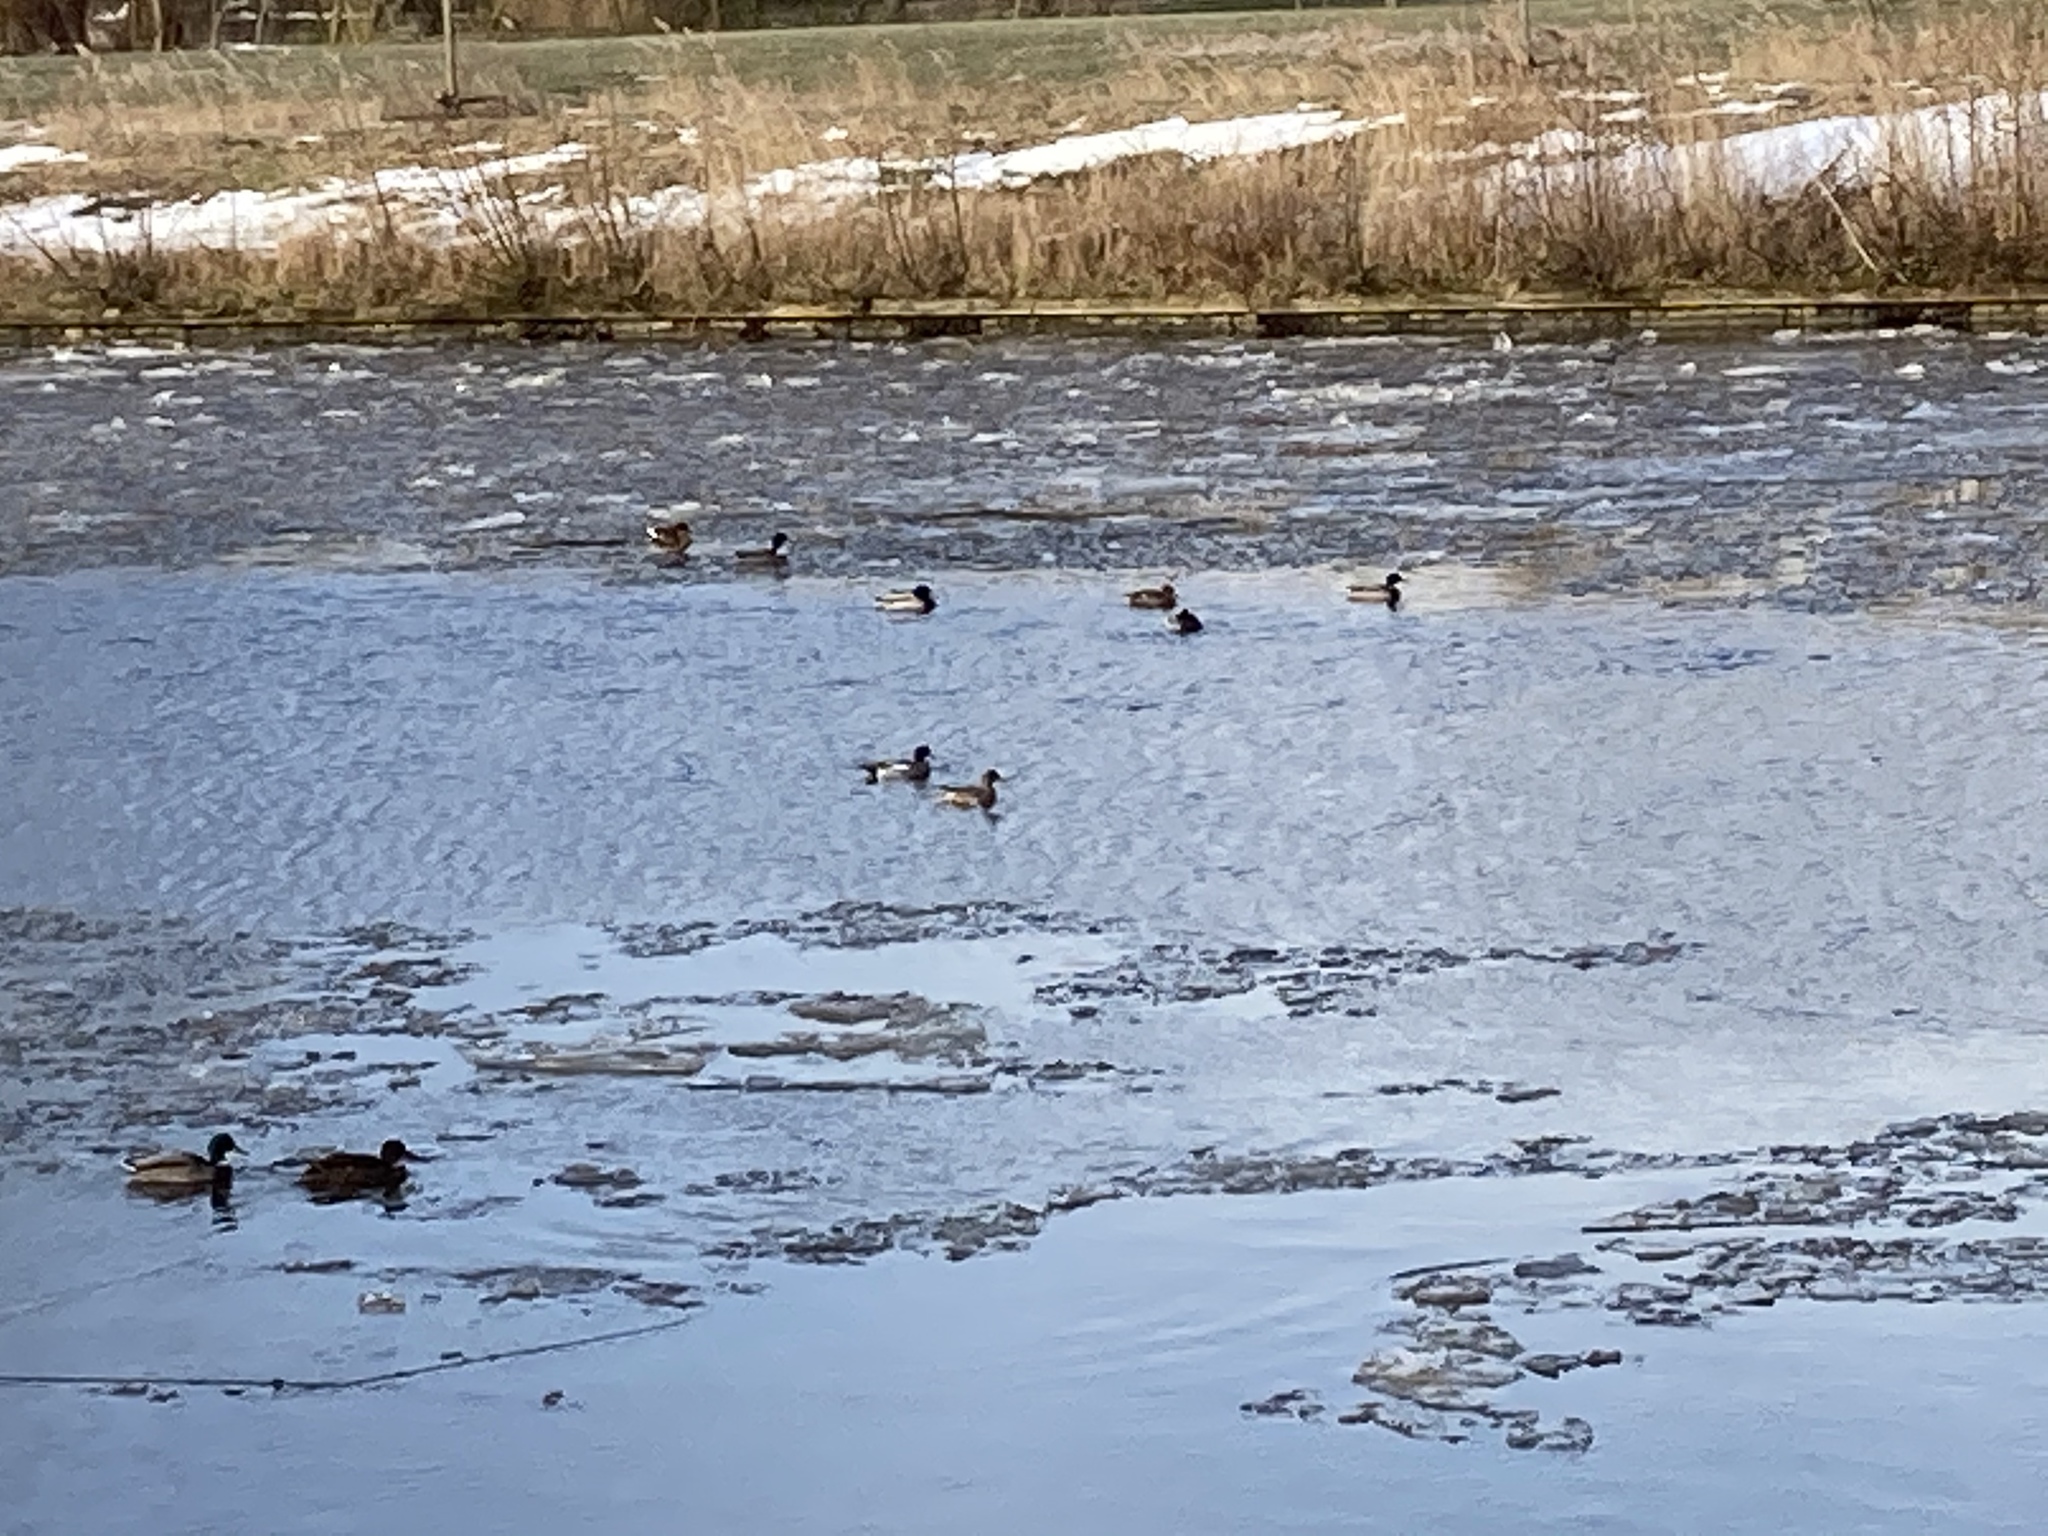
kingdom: Animalia
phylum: Chordata
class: Aves
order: Anseriformes
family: Anatidae
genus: Aythya
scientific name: Aythya ferina
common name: Common pochard
